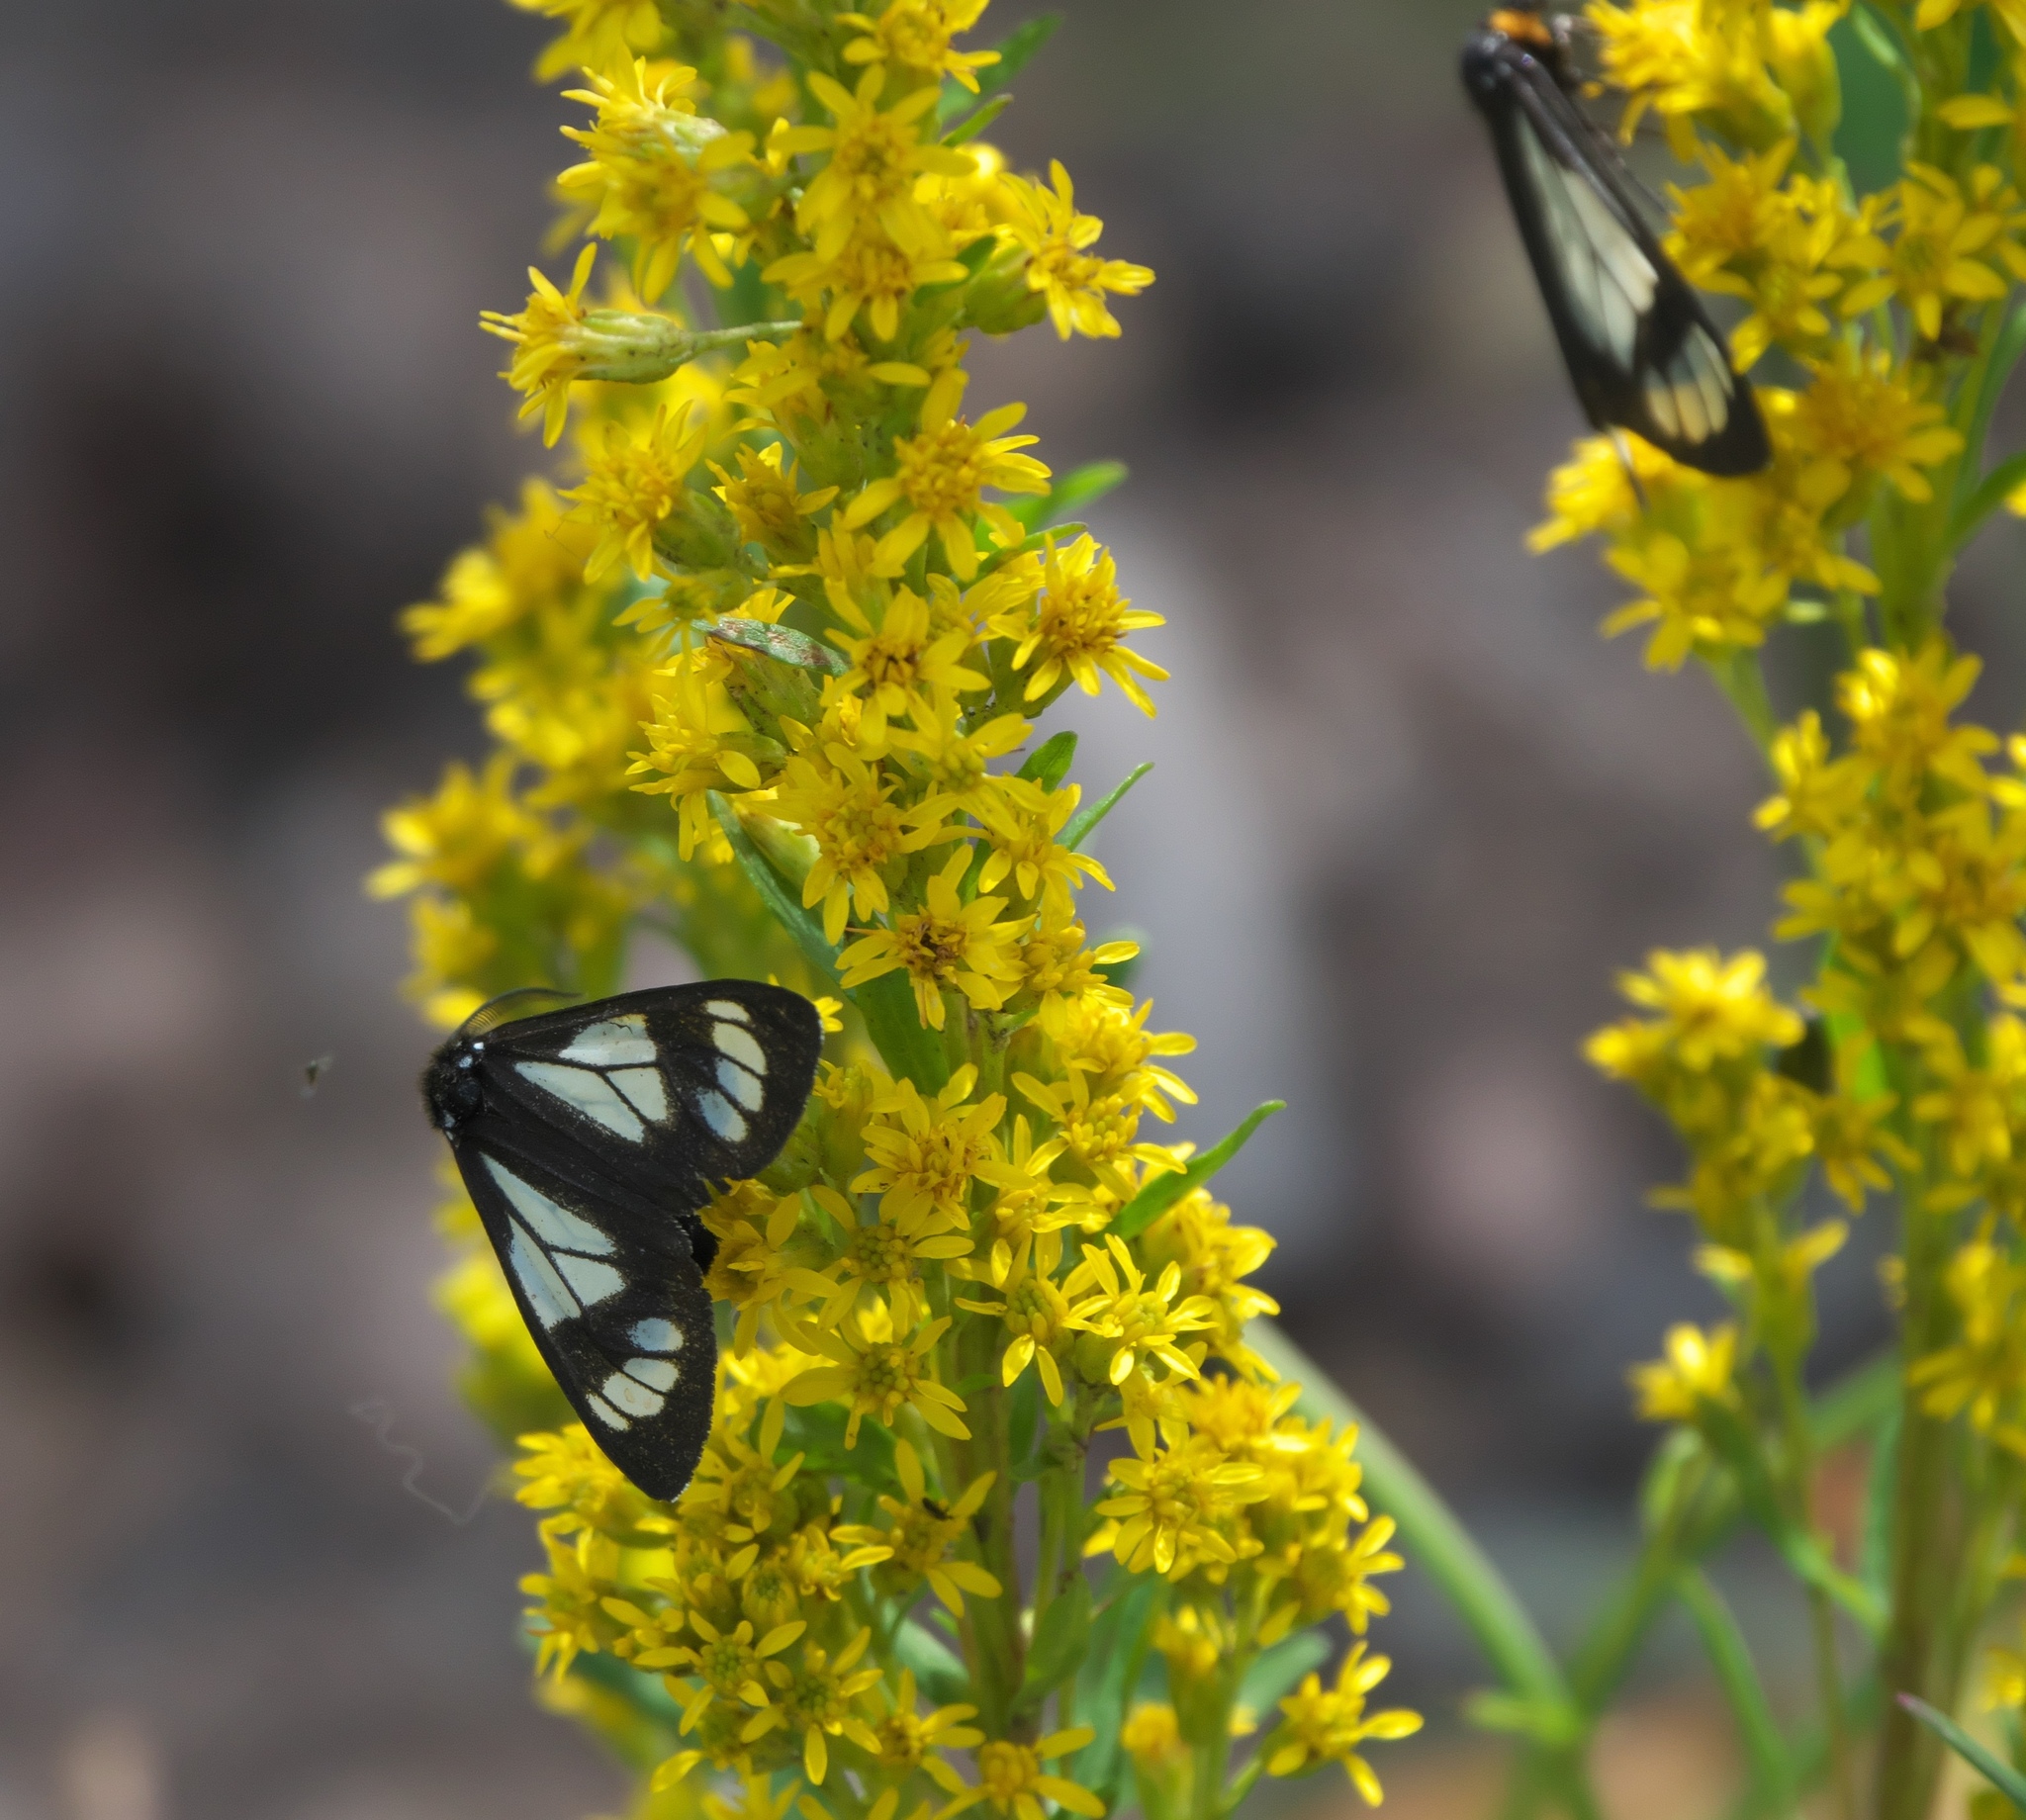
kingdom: Animalia
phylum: Arthropoda
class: Insecta
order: Lepidoptera
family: Erebidae
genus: Gnophaela
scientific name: Gnophaela vermiculata
